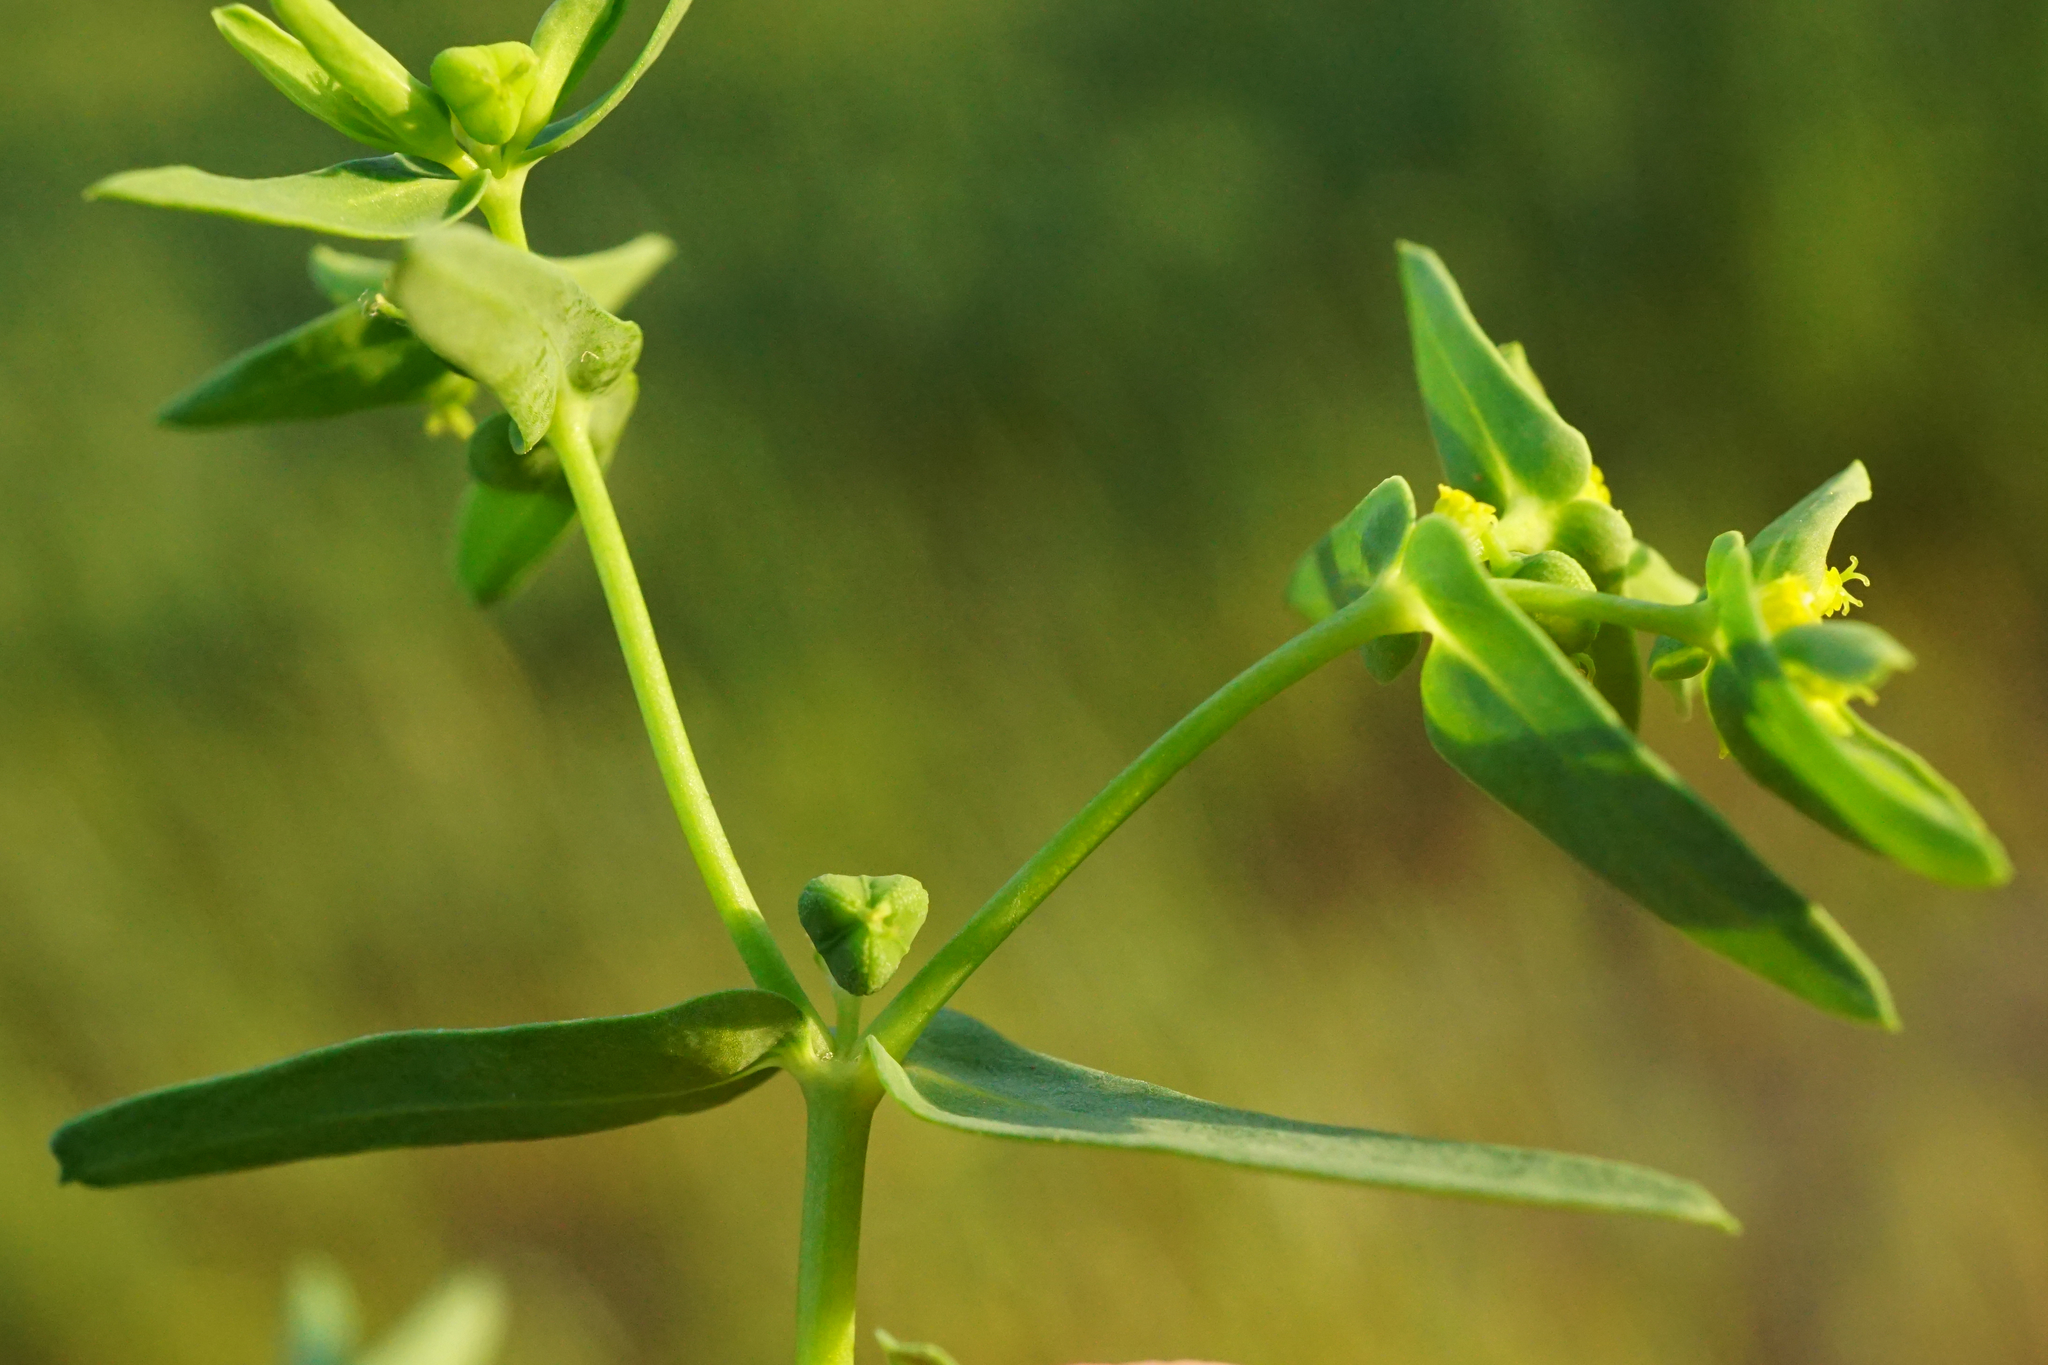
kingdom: Plantae
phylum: Tracheophyta
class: Magnoliopsida
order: Malpighiales
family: Euphorbiaceae
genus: Euphorbia
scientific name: Euphorbia exigua
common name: Dwarf spurge
